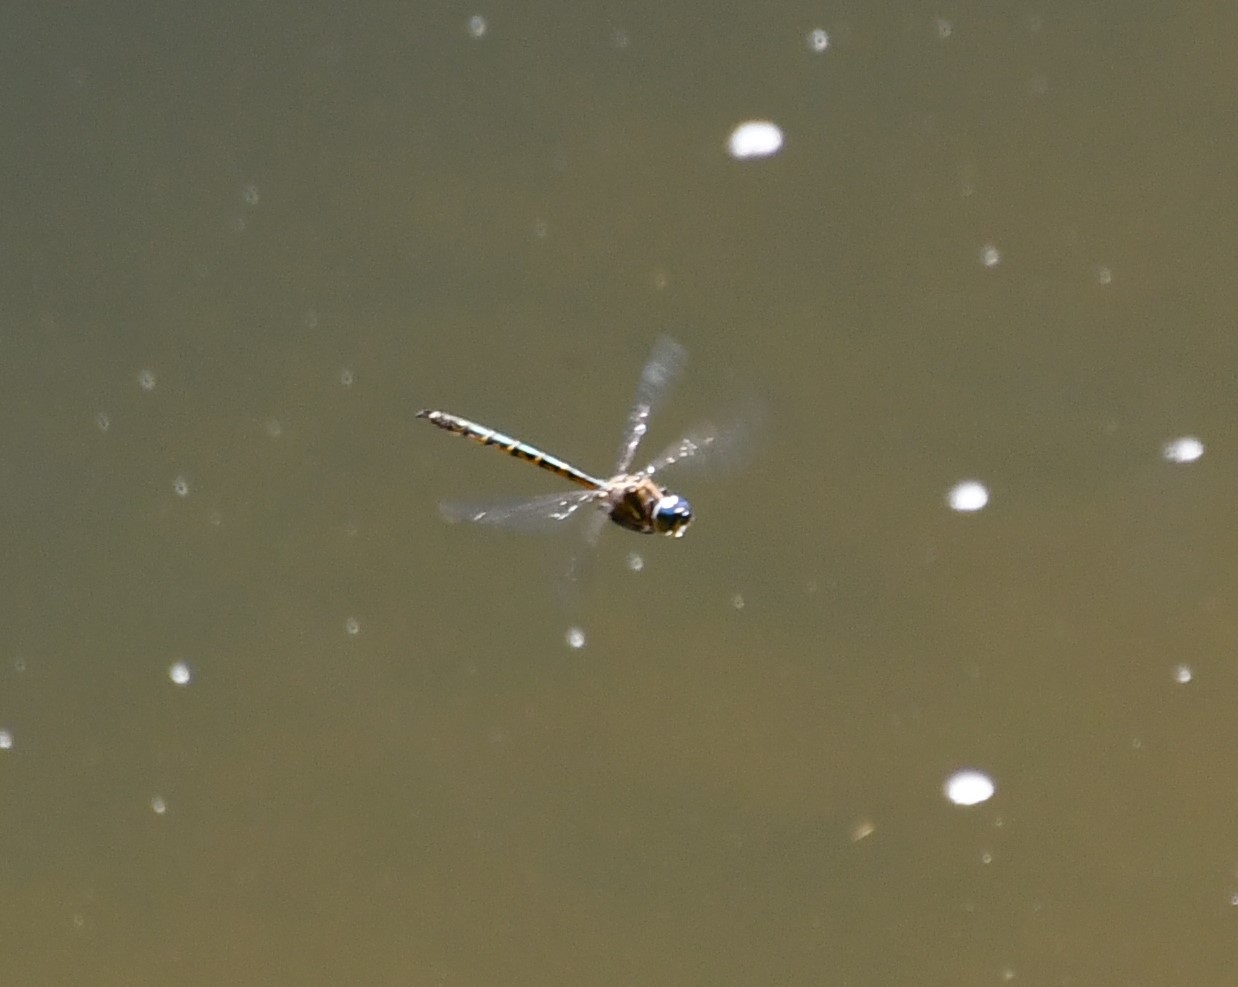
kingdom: Animalia
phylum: Arthropoda
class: Insecta
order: Odonata
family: Corduliidae
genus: Hemicordulia
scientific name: Hemicordulia australiae
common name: Sentry dragonfly
